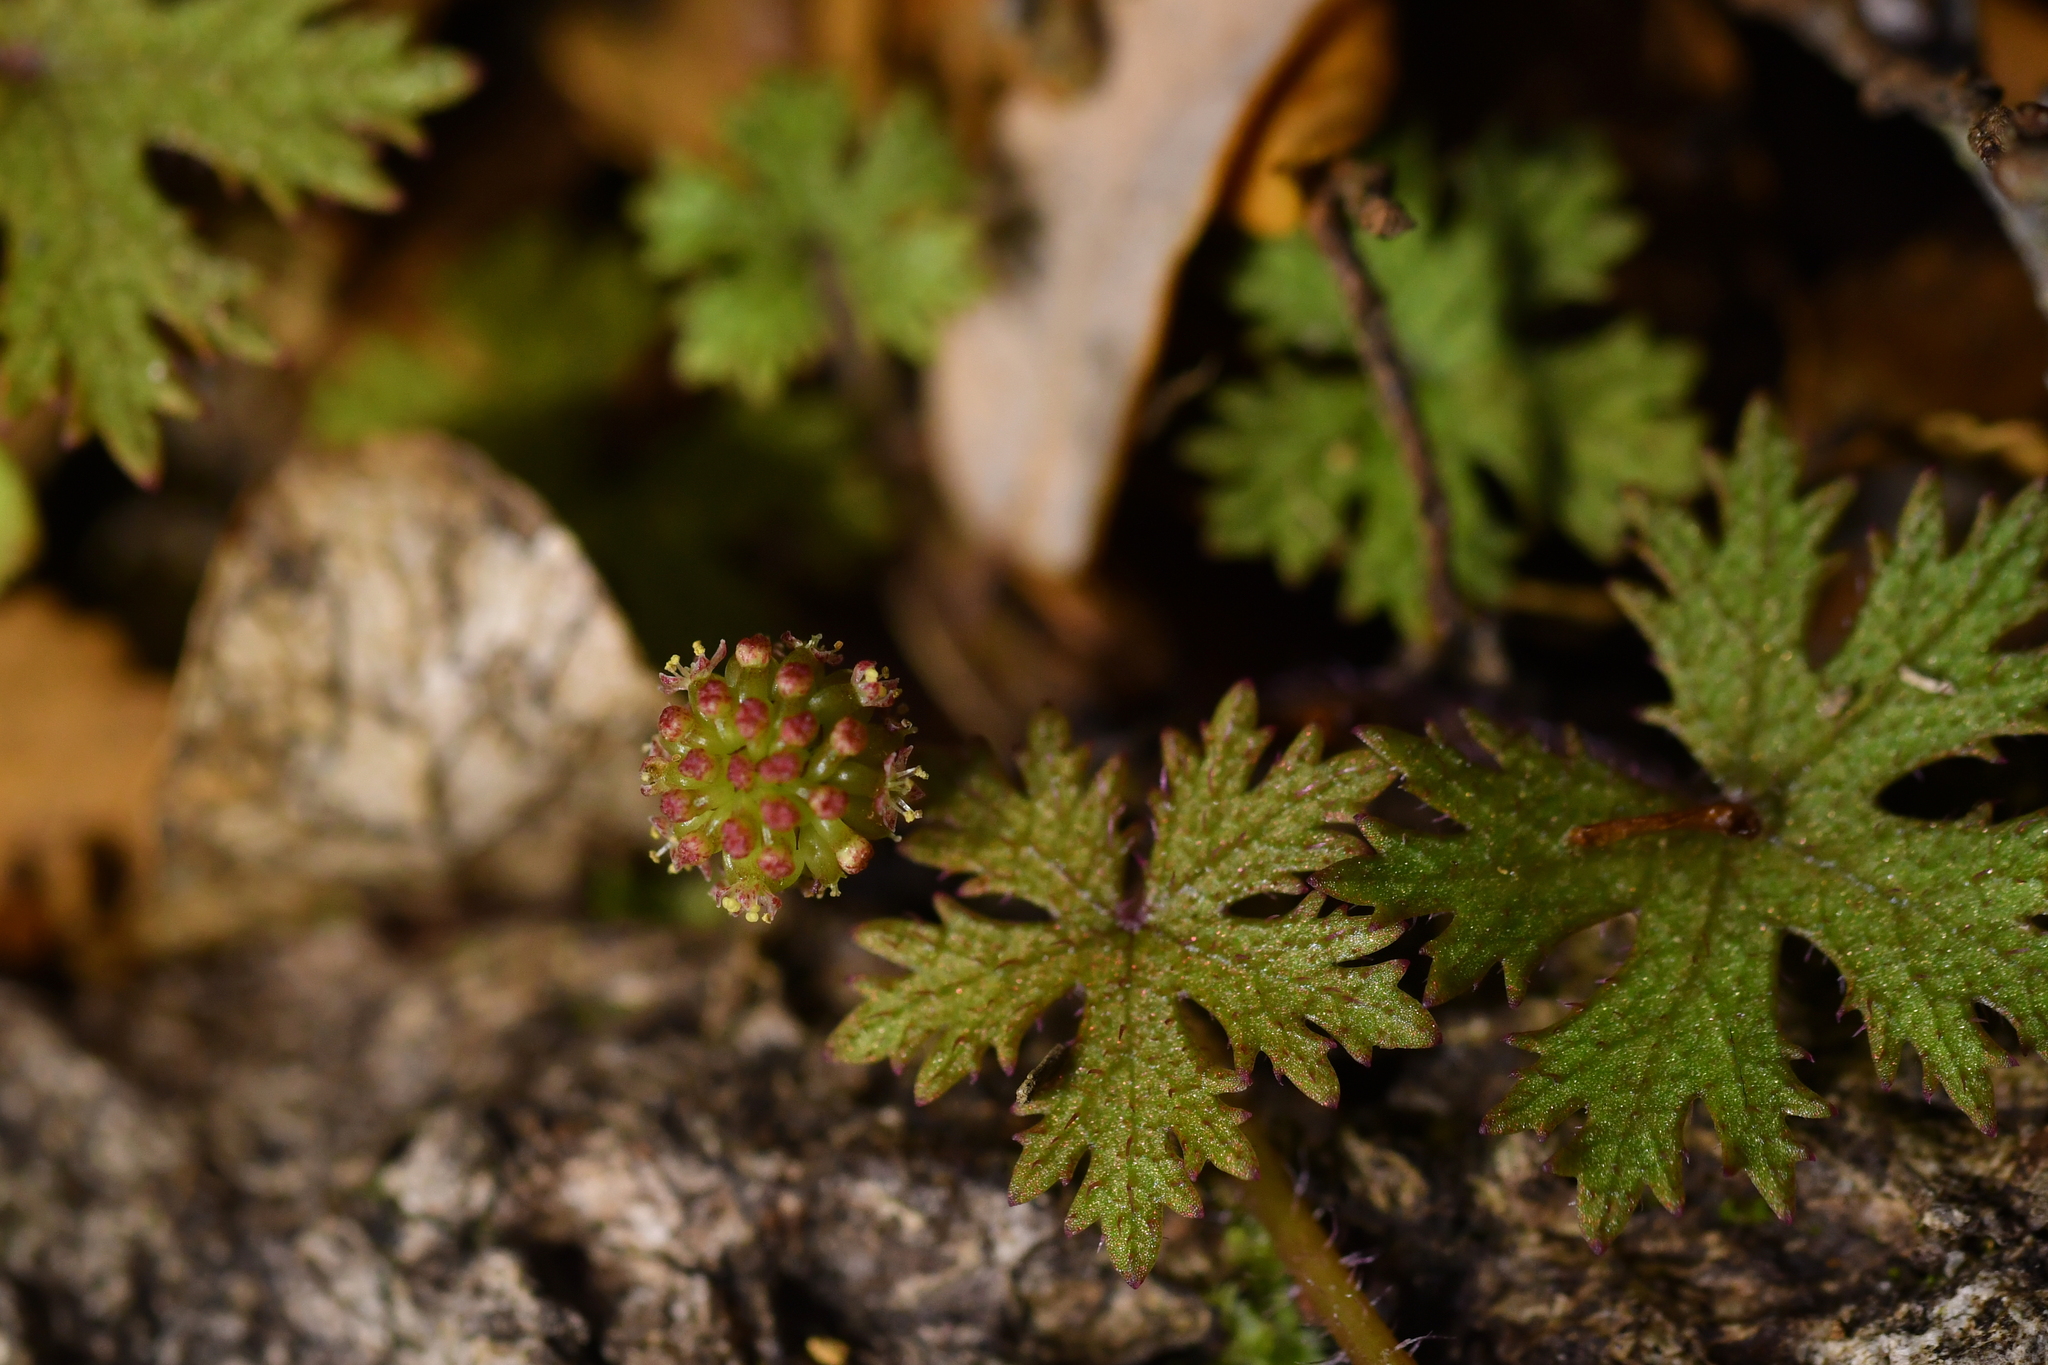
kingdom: Plantae
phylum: Tracheophyta
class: Magnoliopsida
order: Apiales
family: Araliaceae
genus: Hydrocotyle
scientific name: Hydrocotyle dissecta
